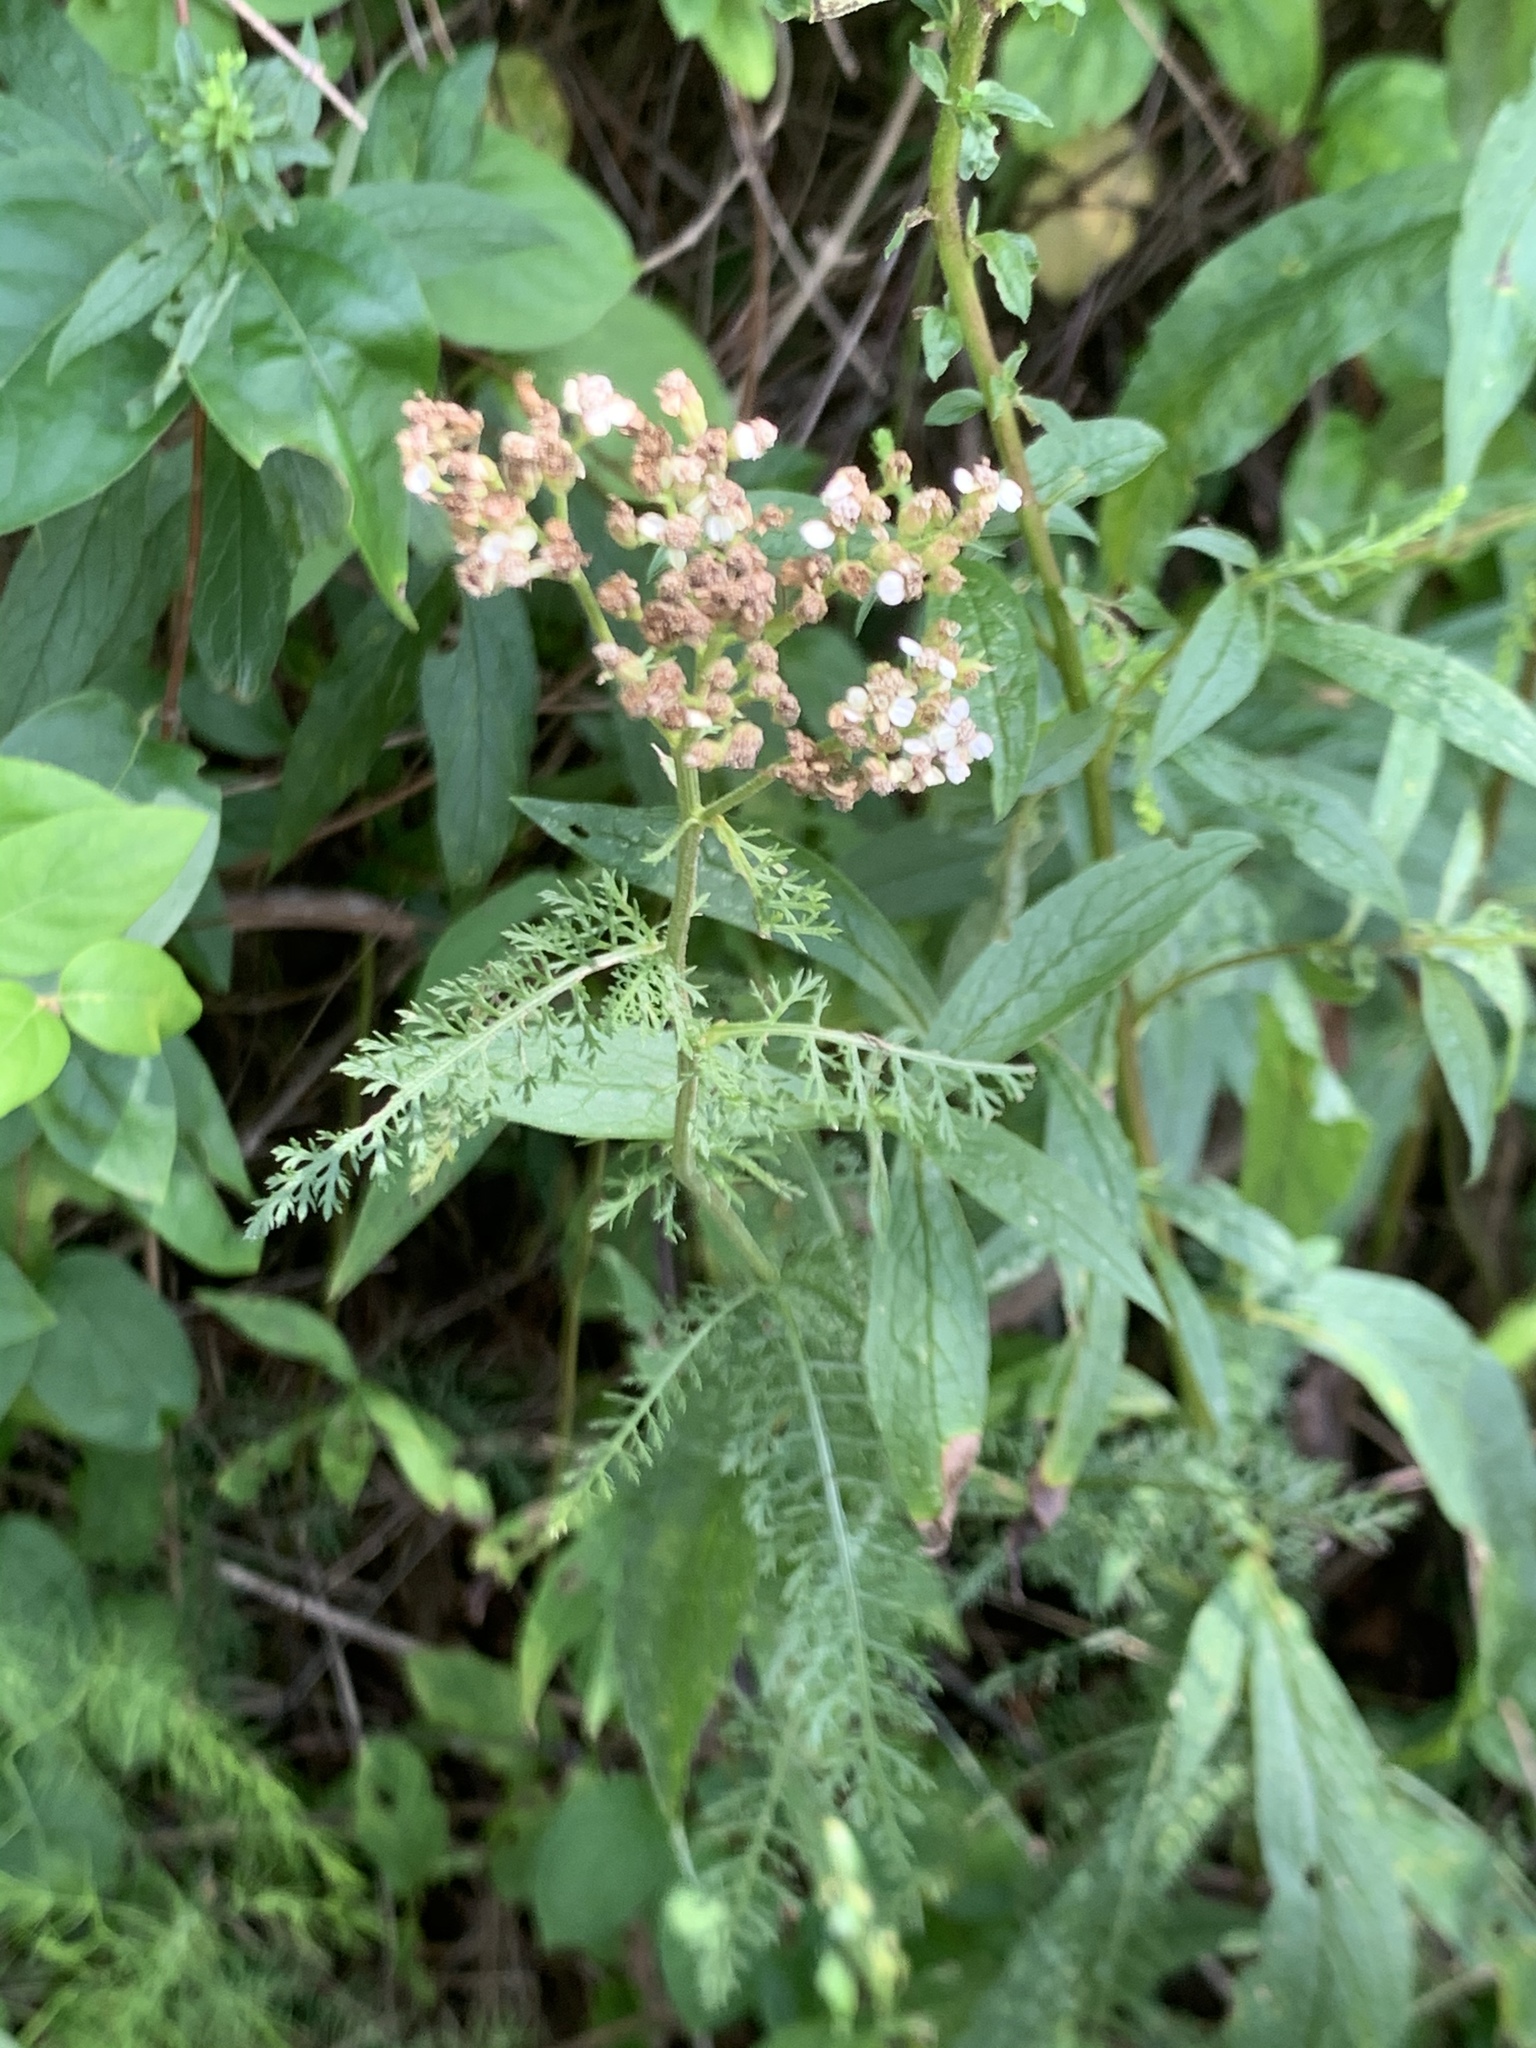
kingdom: Plantae
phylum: Tracheophyta
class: Magnoliopsida
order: Asterales
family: Asteraceae
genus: Achillea
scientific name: Achillea millefolium
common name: Yarrow
